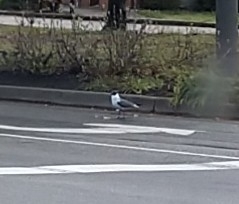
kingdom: Animalia
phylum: Chordata
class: Aves
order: Charadriiformes
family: Laridae
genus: Leucophaeus
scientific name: Leucophaeus atricilla
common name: Laughing gull
